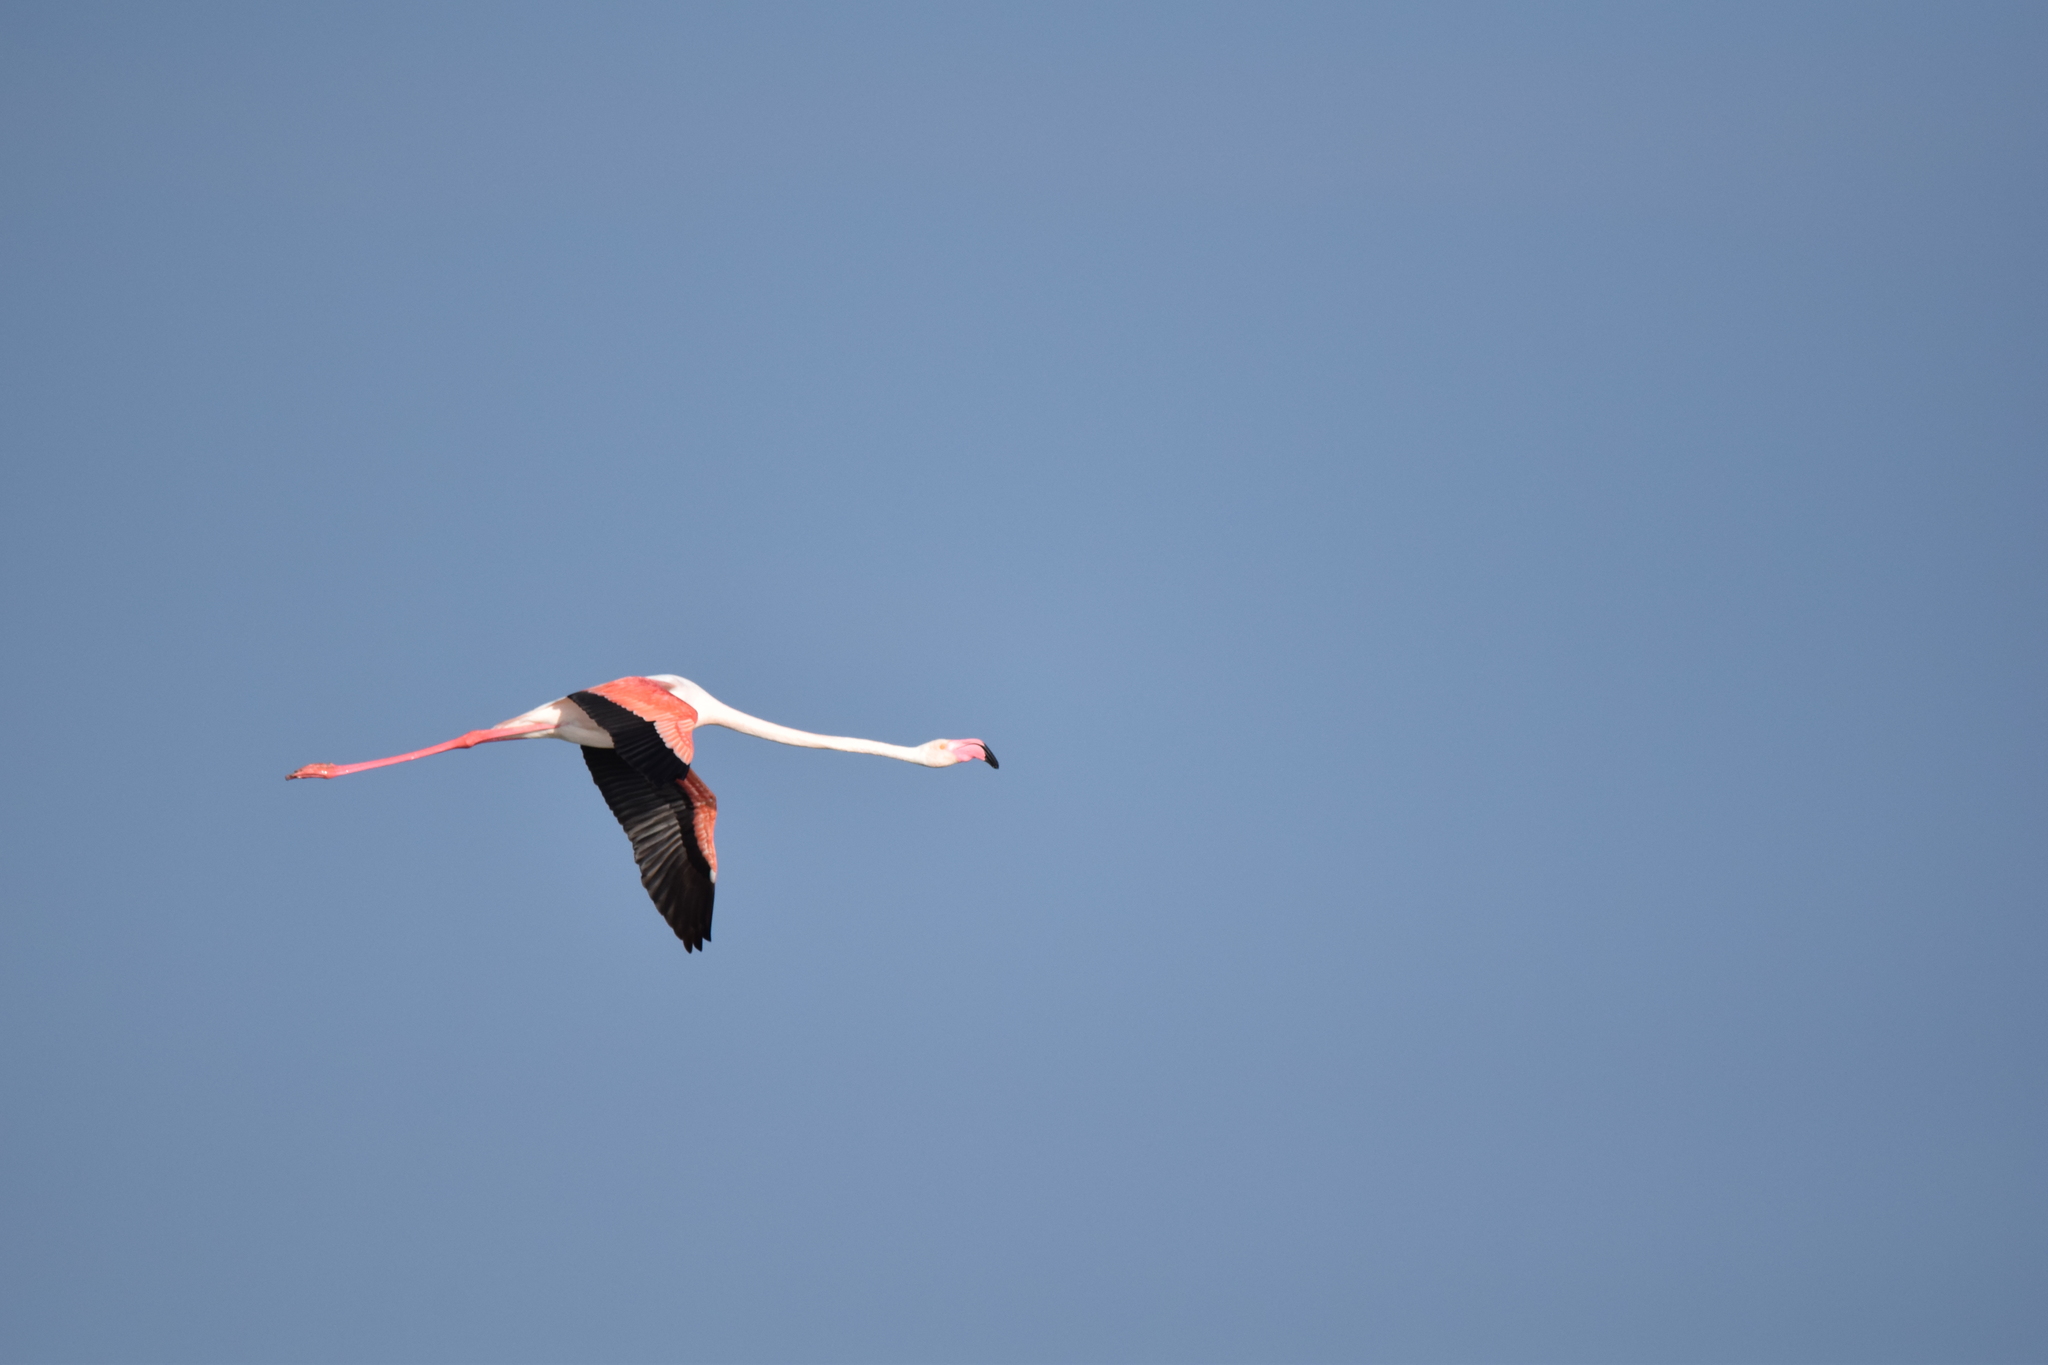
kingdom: Animalia
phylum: Chordata
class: Aves
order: Phoenicopteriformes
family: Phoenicopteridae
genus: Phoenicopterus
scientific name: Phoenicopterus roseus
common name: Greater flamingo
